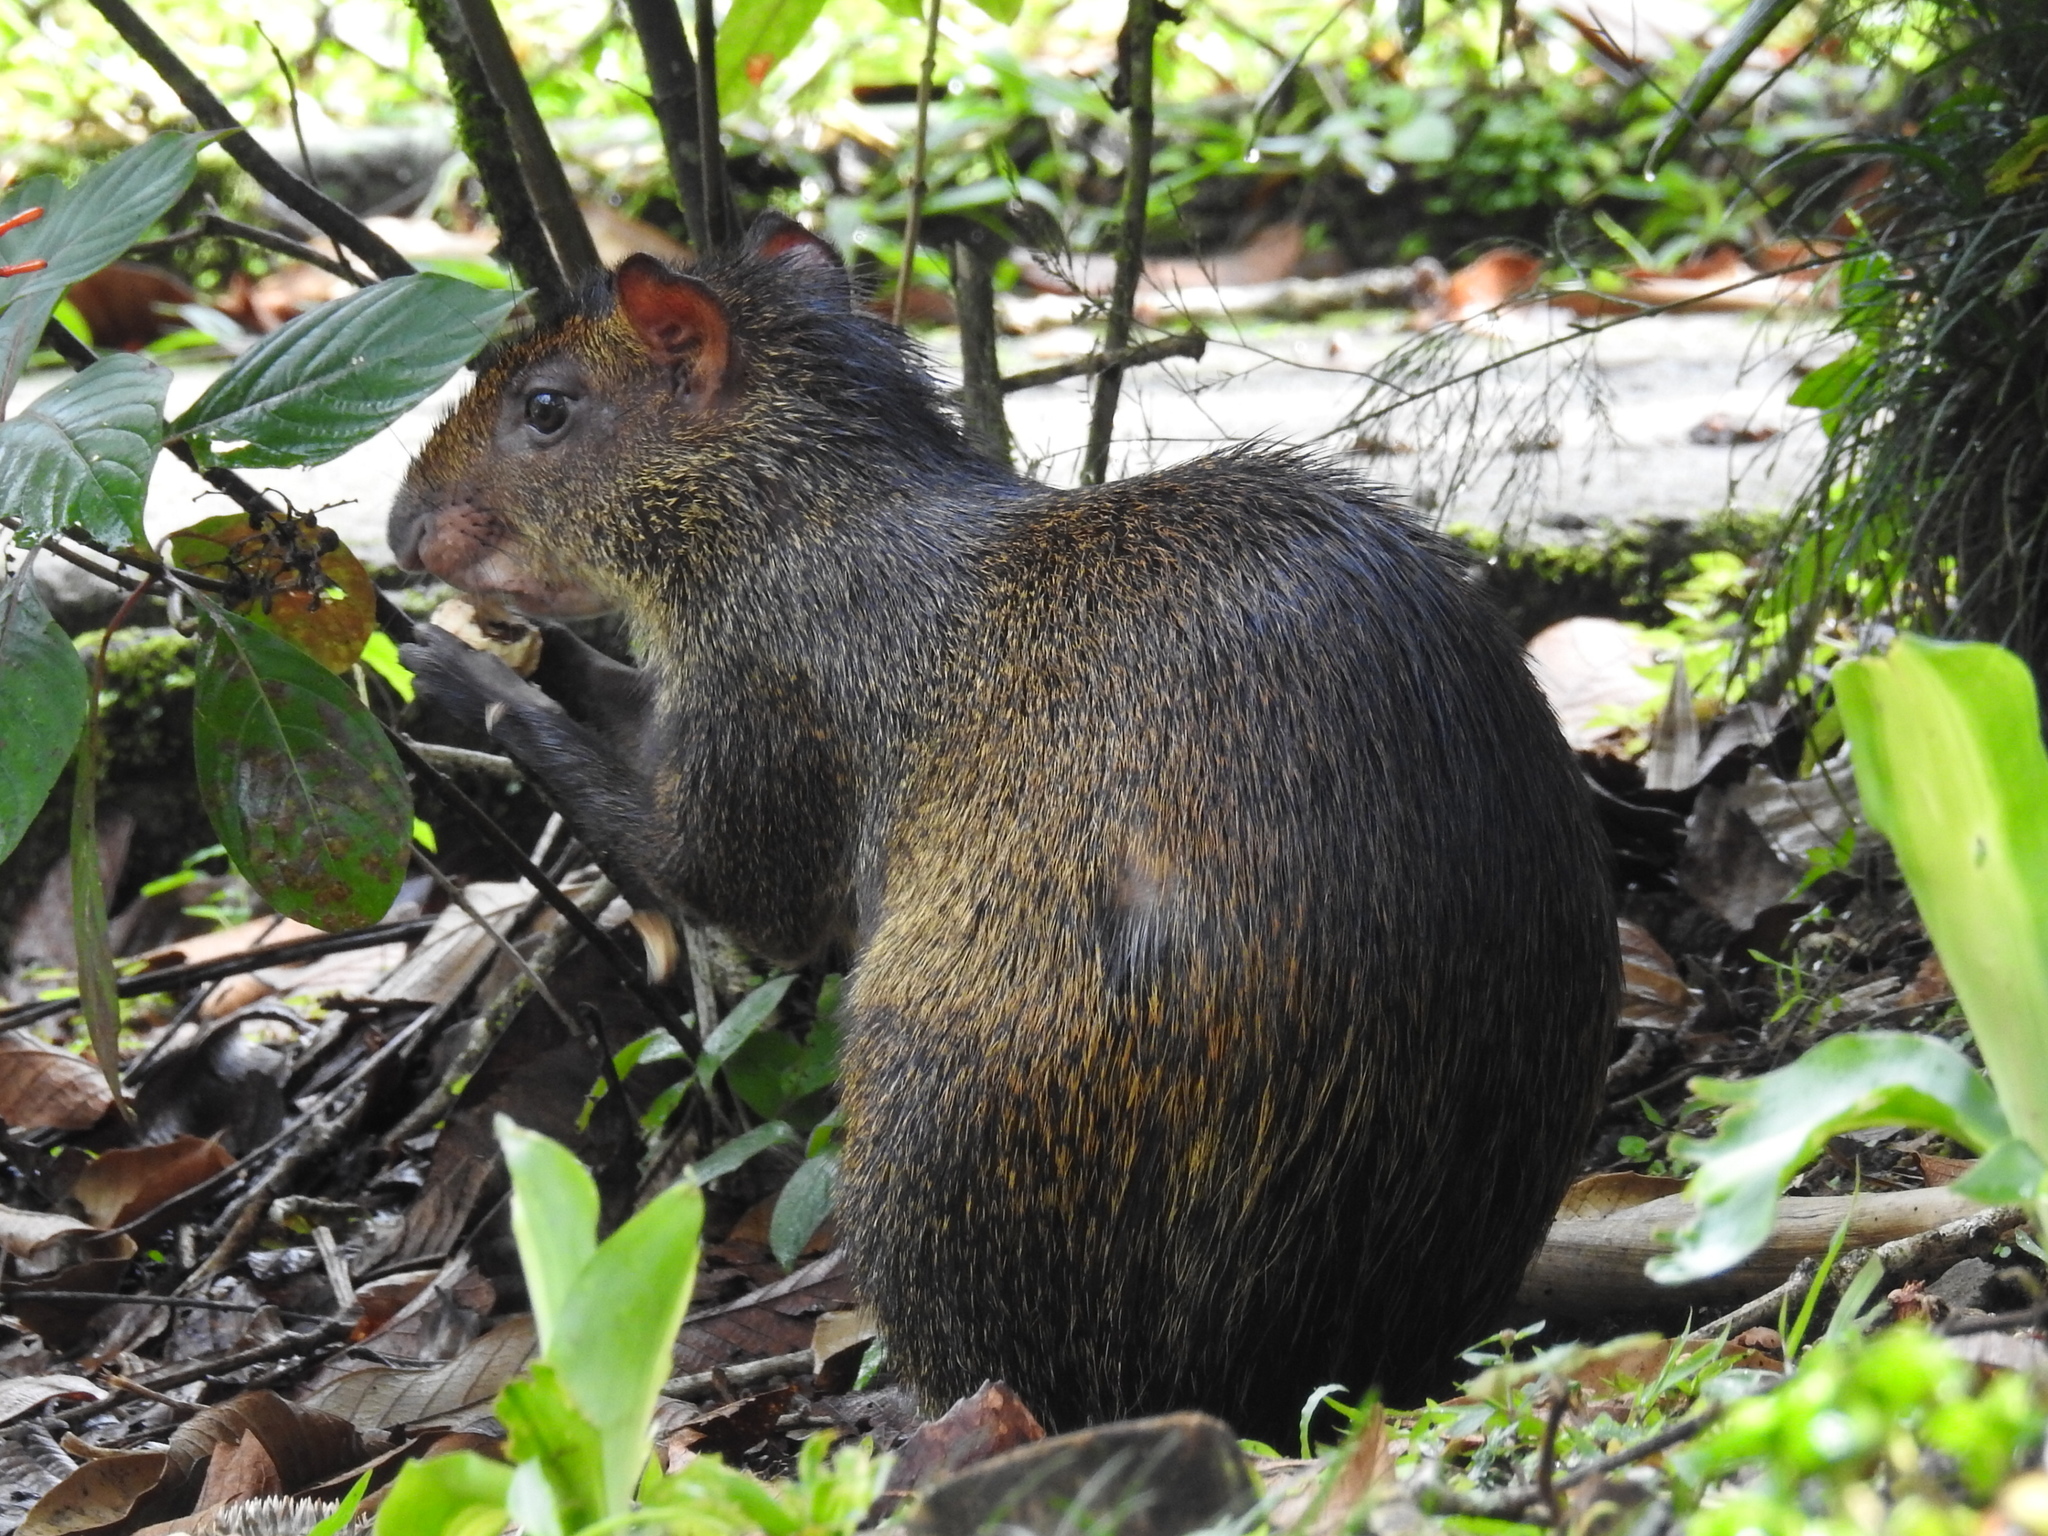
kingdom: Animalia
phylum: Chordata
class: Mammalia
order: Rodentia
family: Dasyproctidae
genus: Dasyprocta
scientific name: Dasyprocta punctata
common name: Central american agouti
